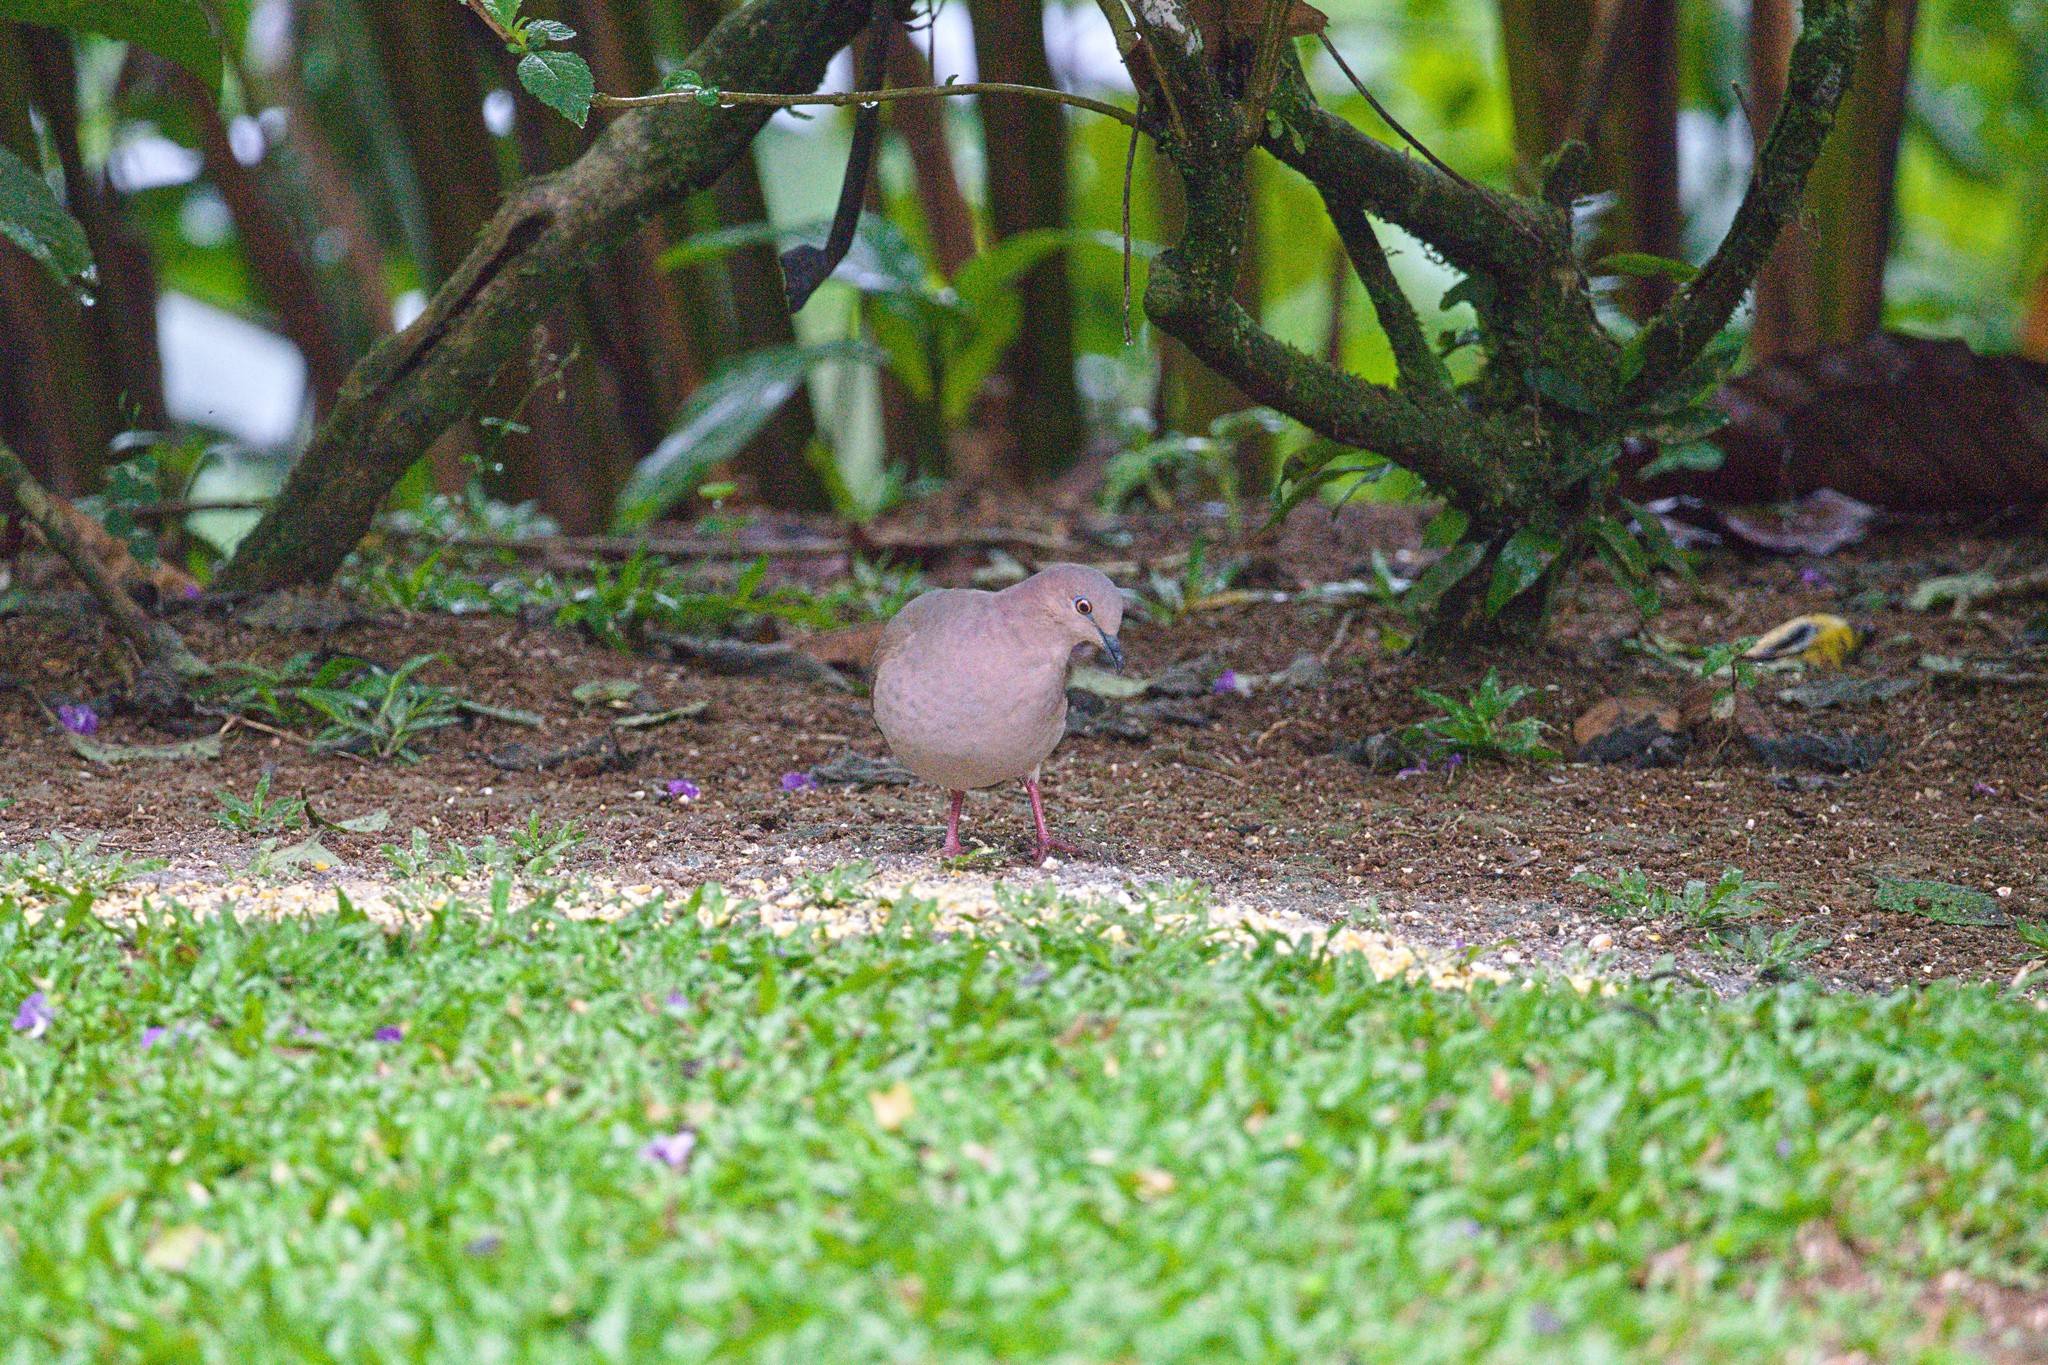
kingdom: Animalia
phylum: Chordata
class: Aves
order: Columbiformes
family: Columbidae
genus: Leptotila
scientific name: Leptotila verreauxi
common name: White-tipped dove
